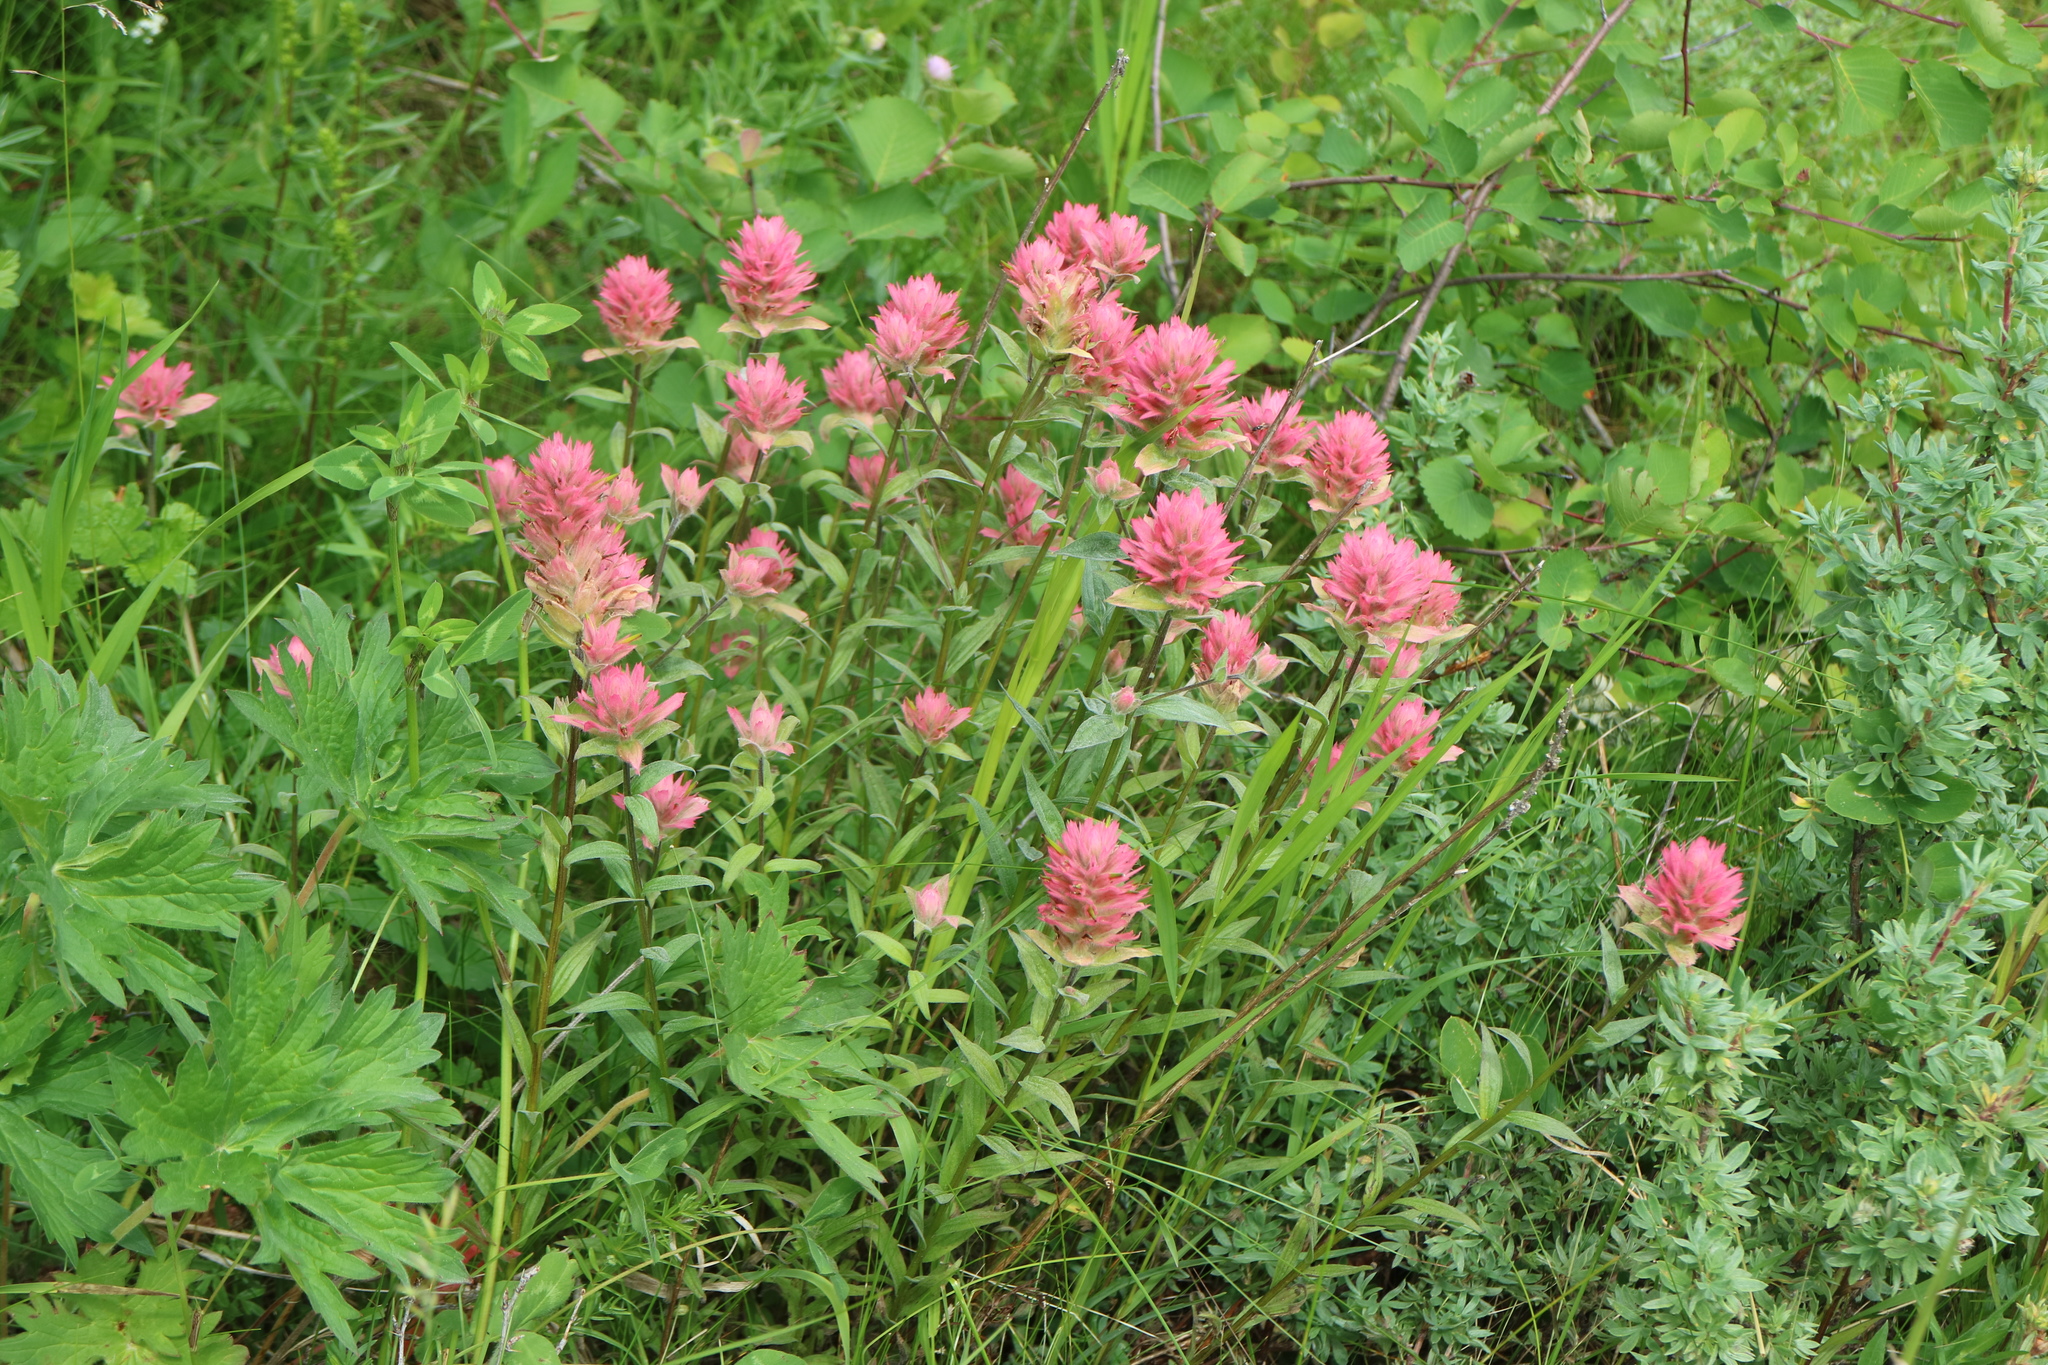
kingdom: Plantae
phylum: Tracheophyta
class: Magnoliopsida
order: Lamiales
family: Orobanchaceae
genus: Castilleja
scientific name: Castilleja miniata
